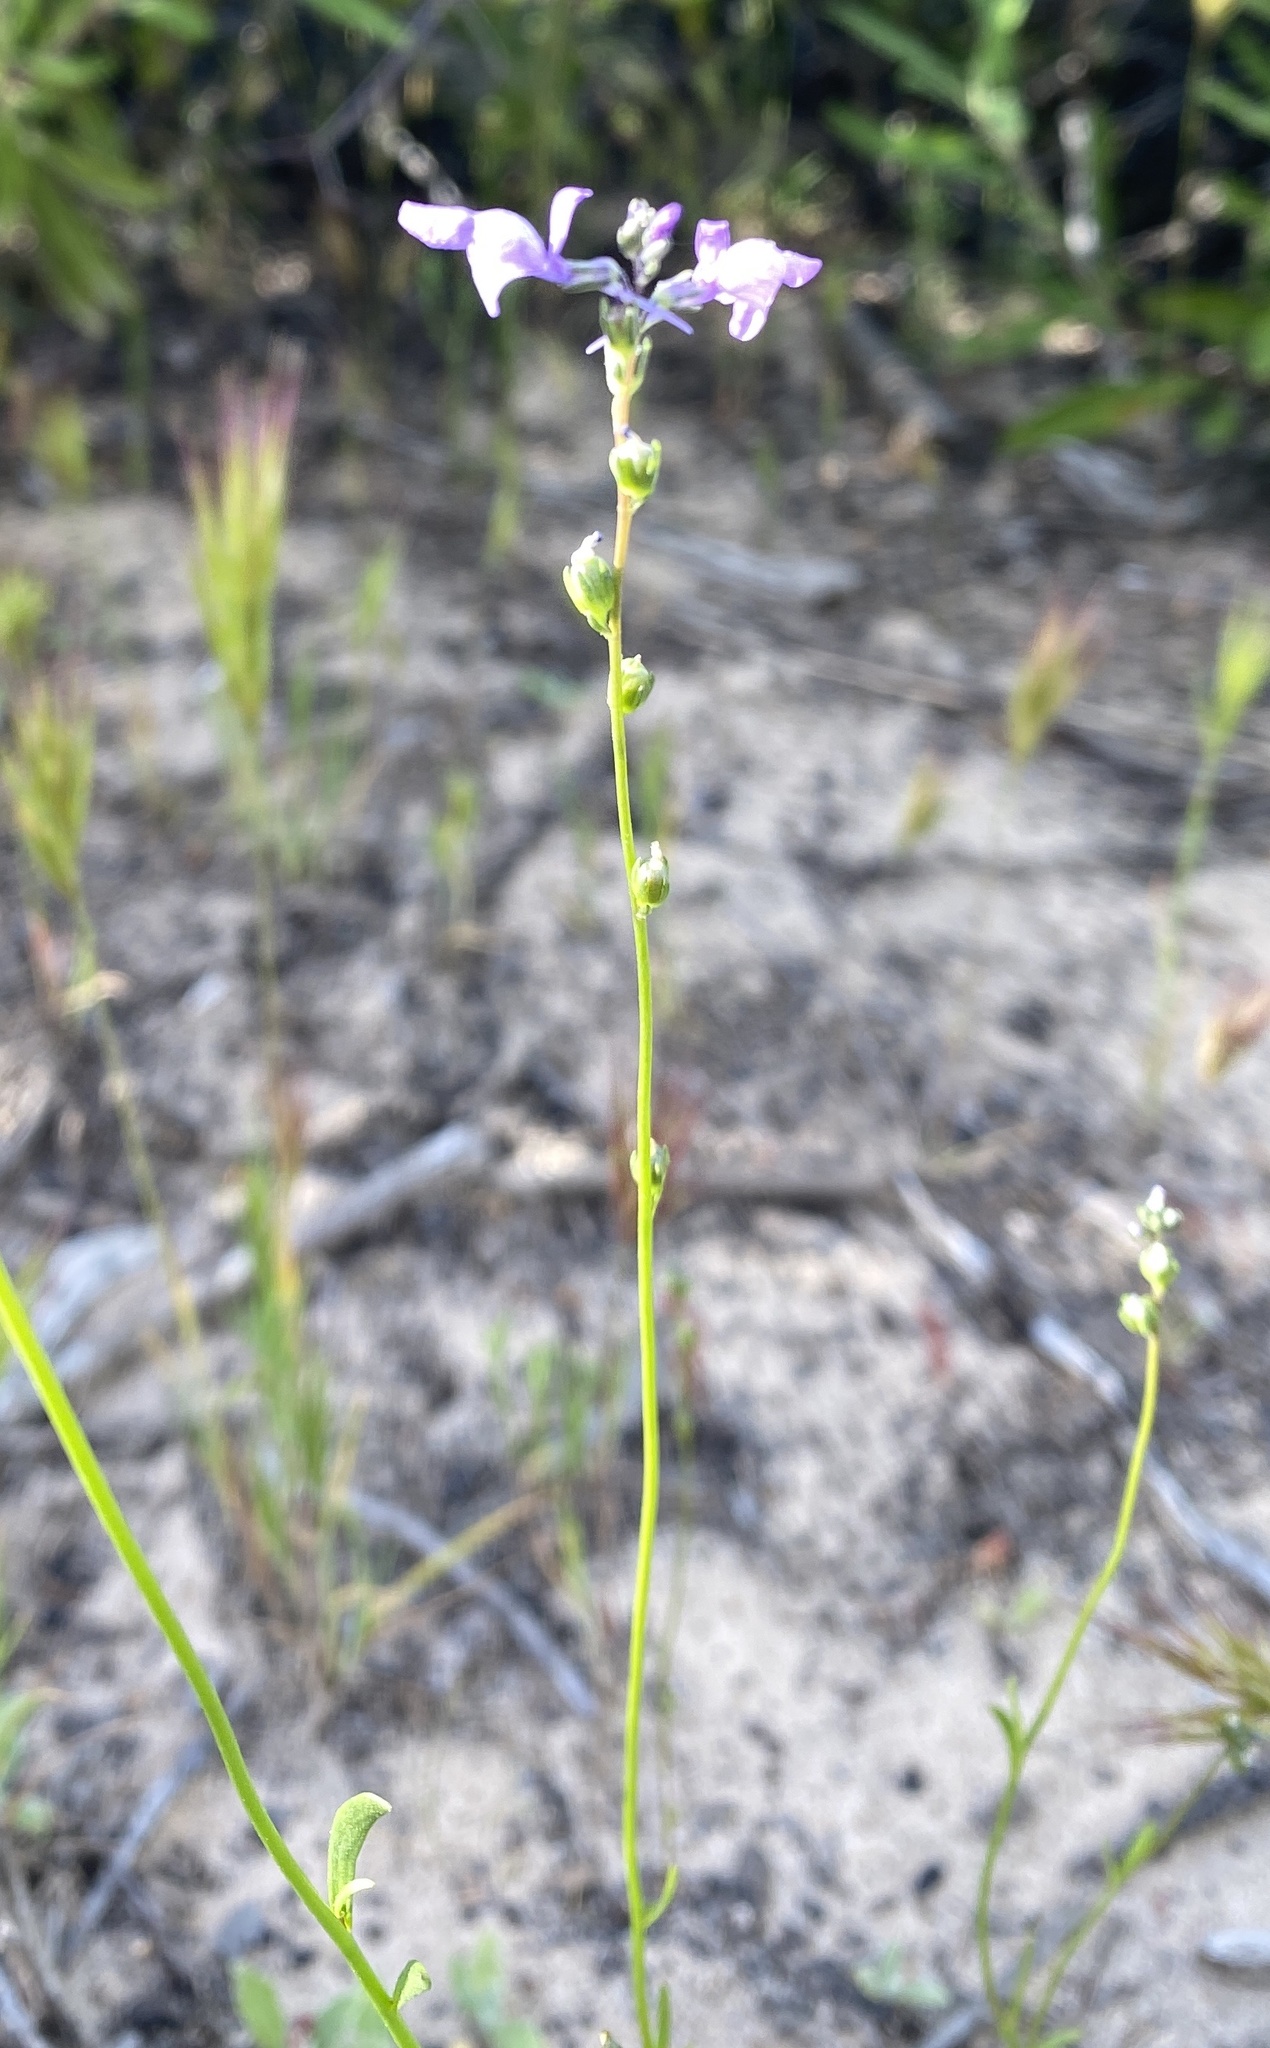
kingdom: Plantae
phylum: Tracheophyta
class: Magnoliopsida
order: Lamiales
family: Plantaginaceae
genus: Nuttallanthus
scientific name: Nuttallanthus texanus
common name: Texas toadflax
